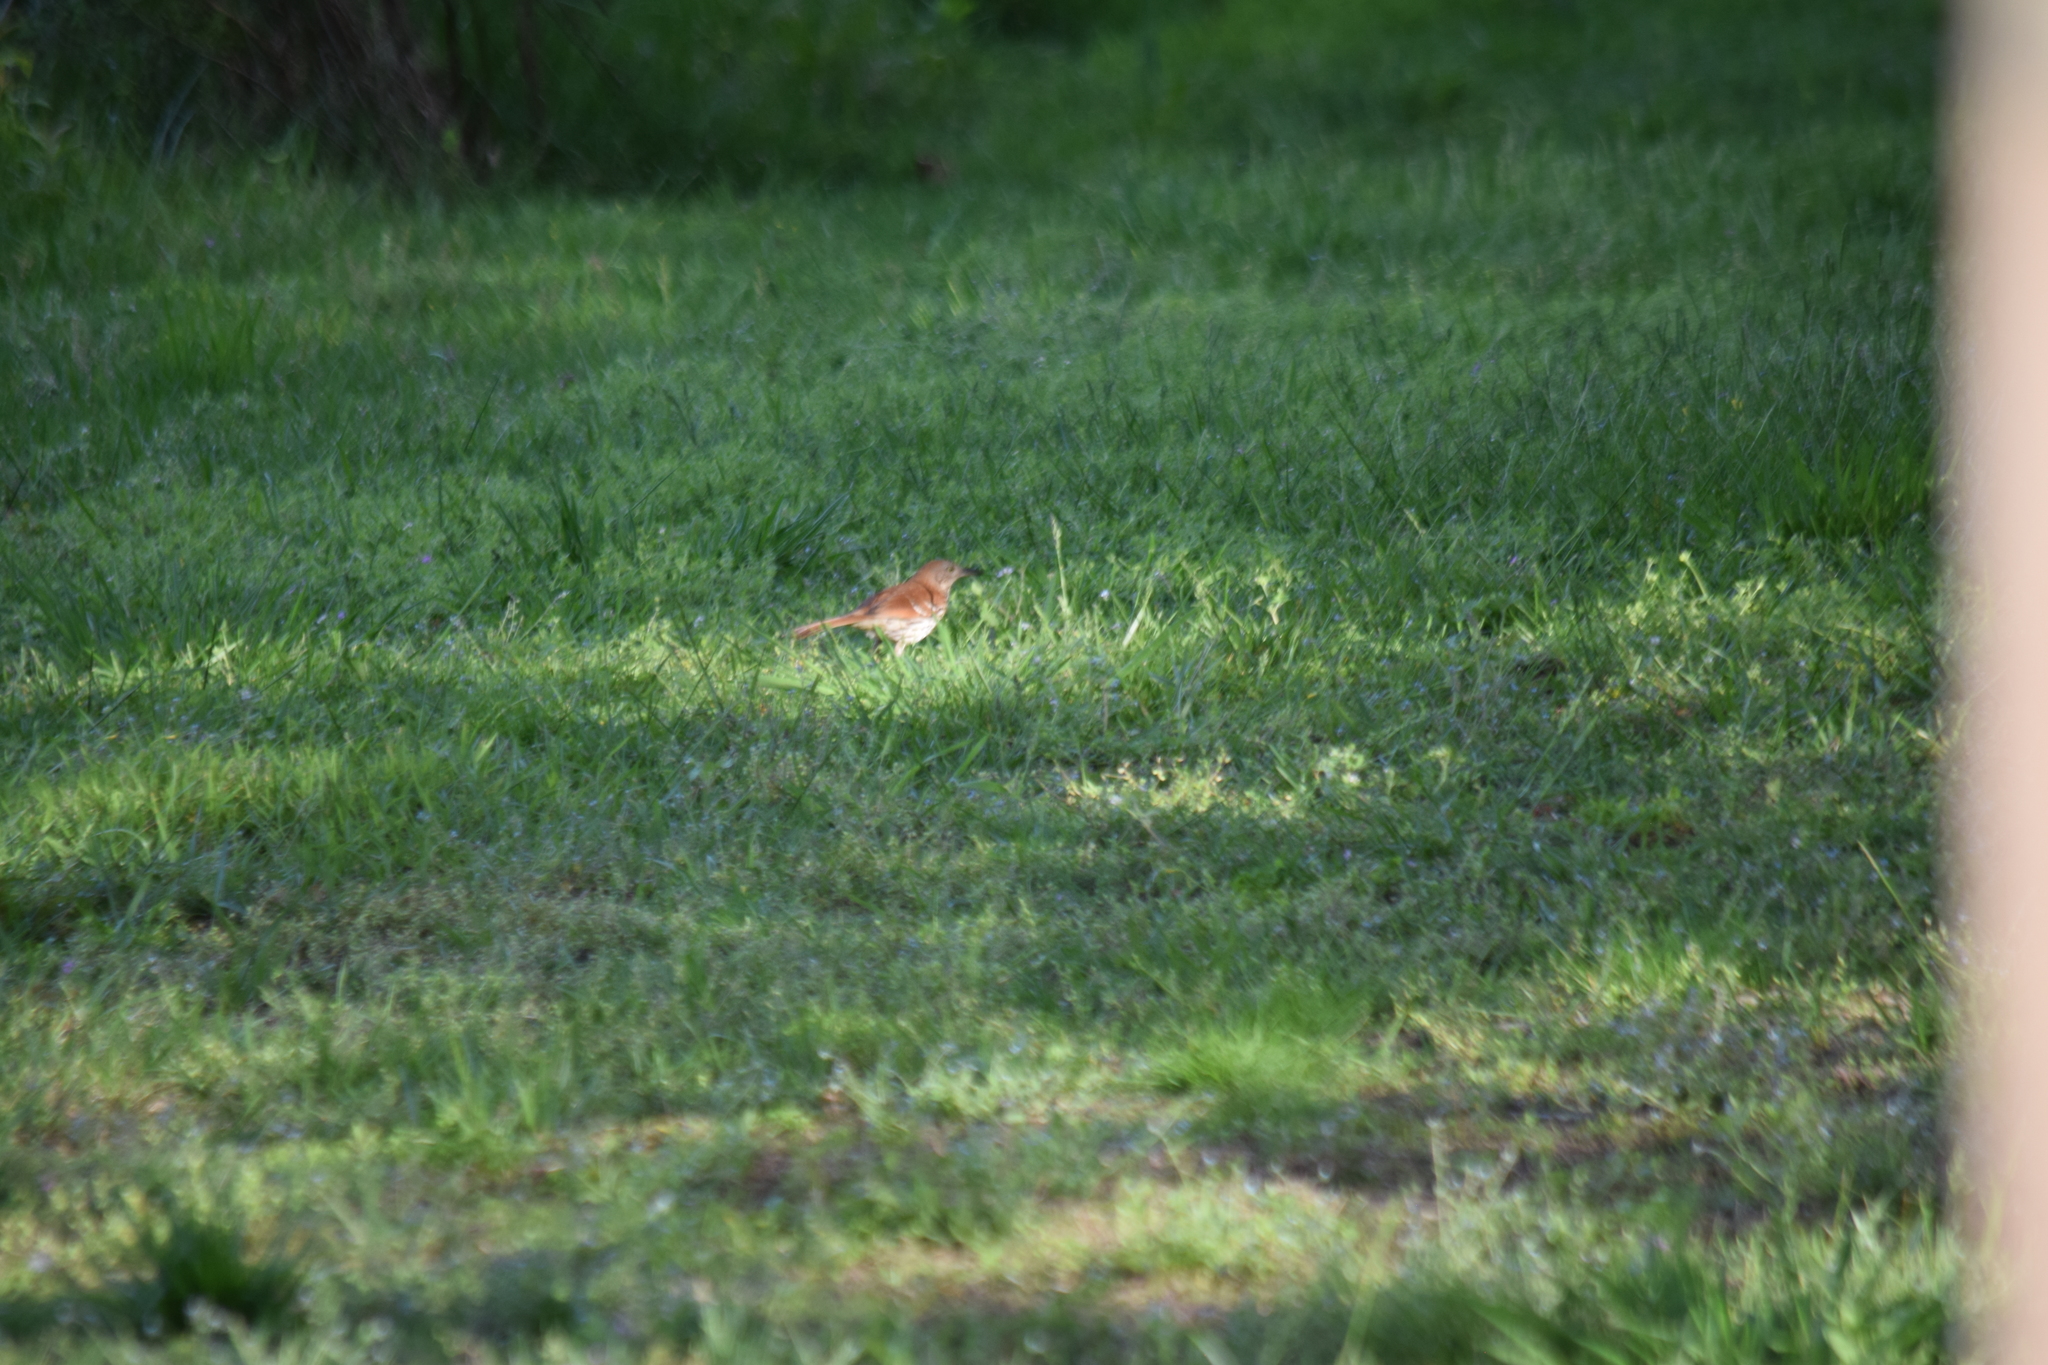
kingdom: Animalia
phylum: Chordata
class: Aves
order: Passeriformes
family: Mimidae
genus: Toxostoma
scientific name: Toxostoma rufum
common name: Brown thrasher
